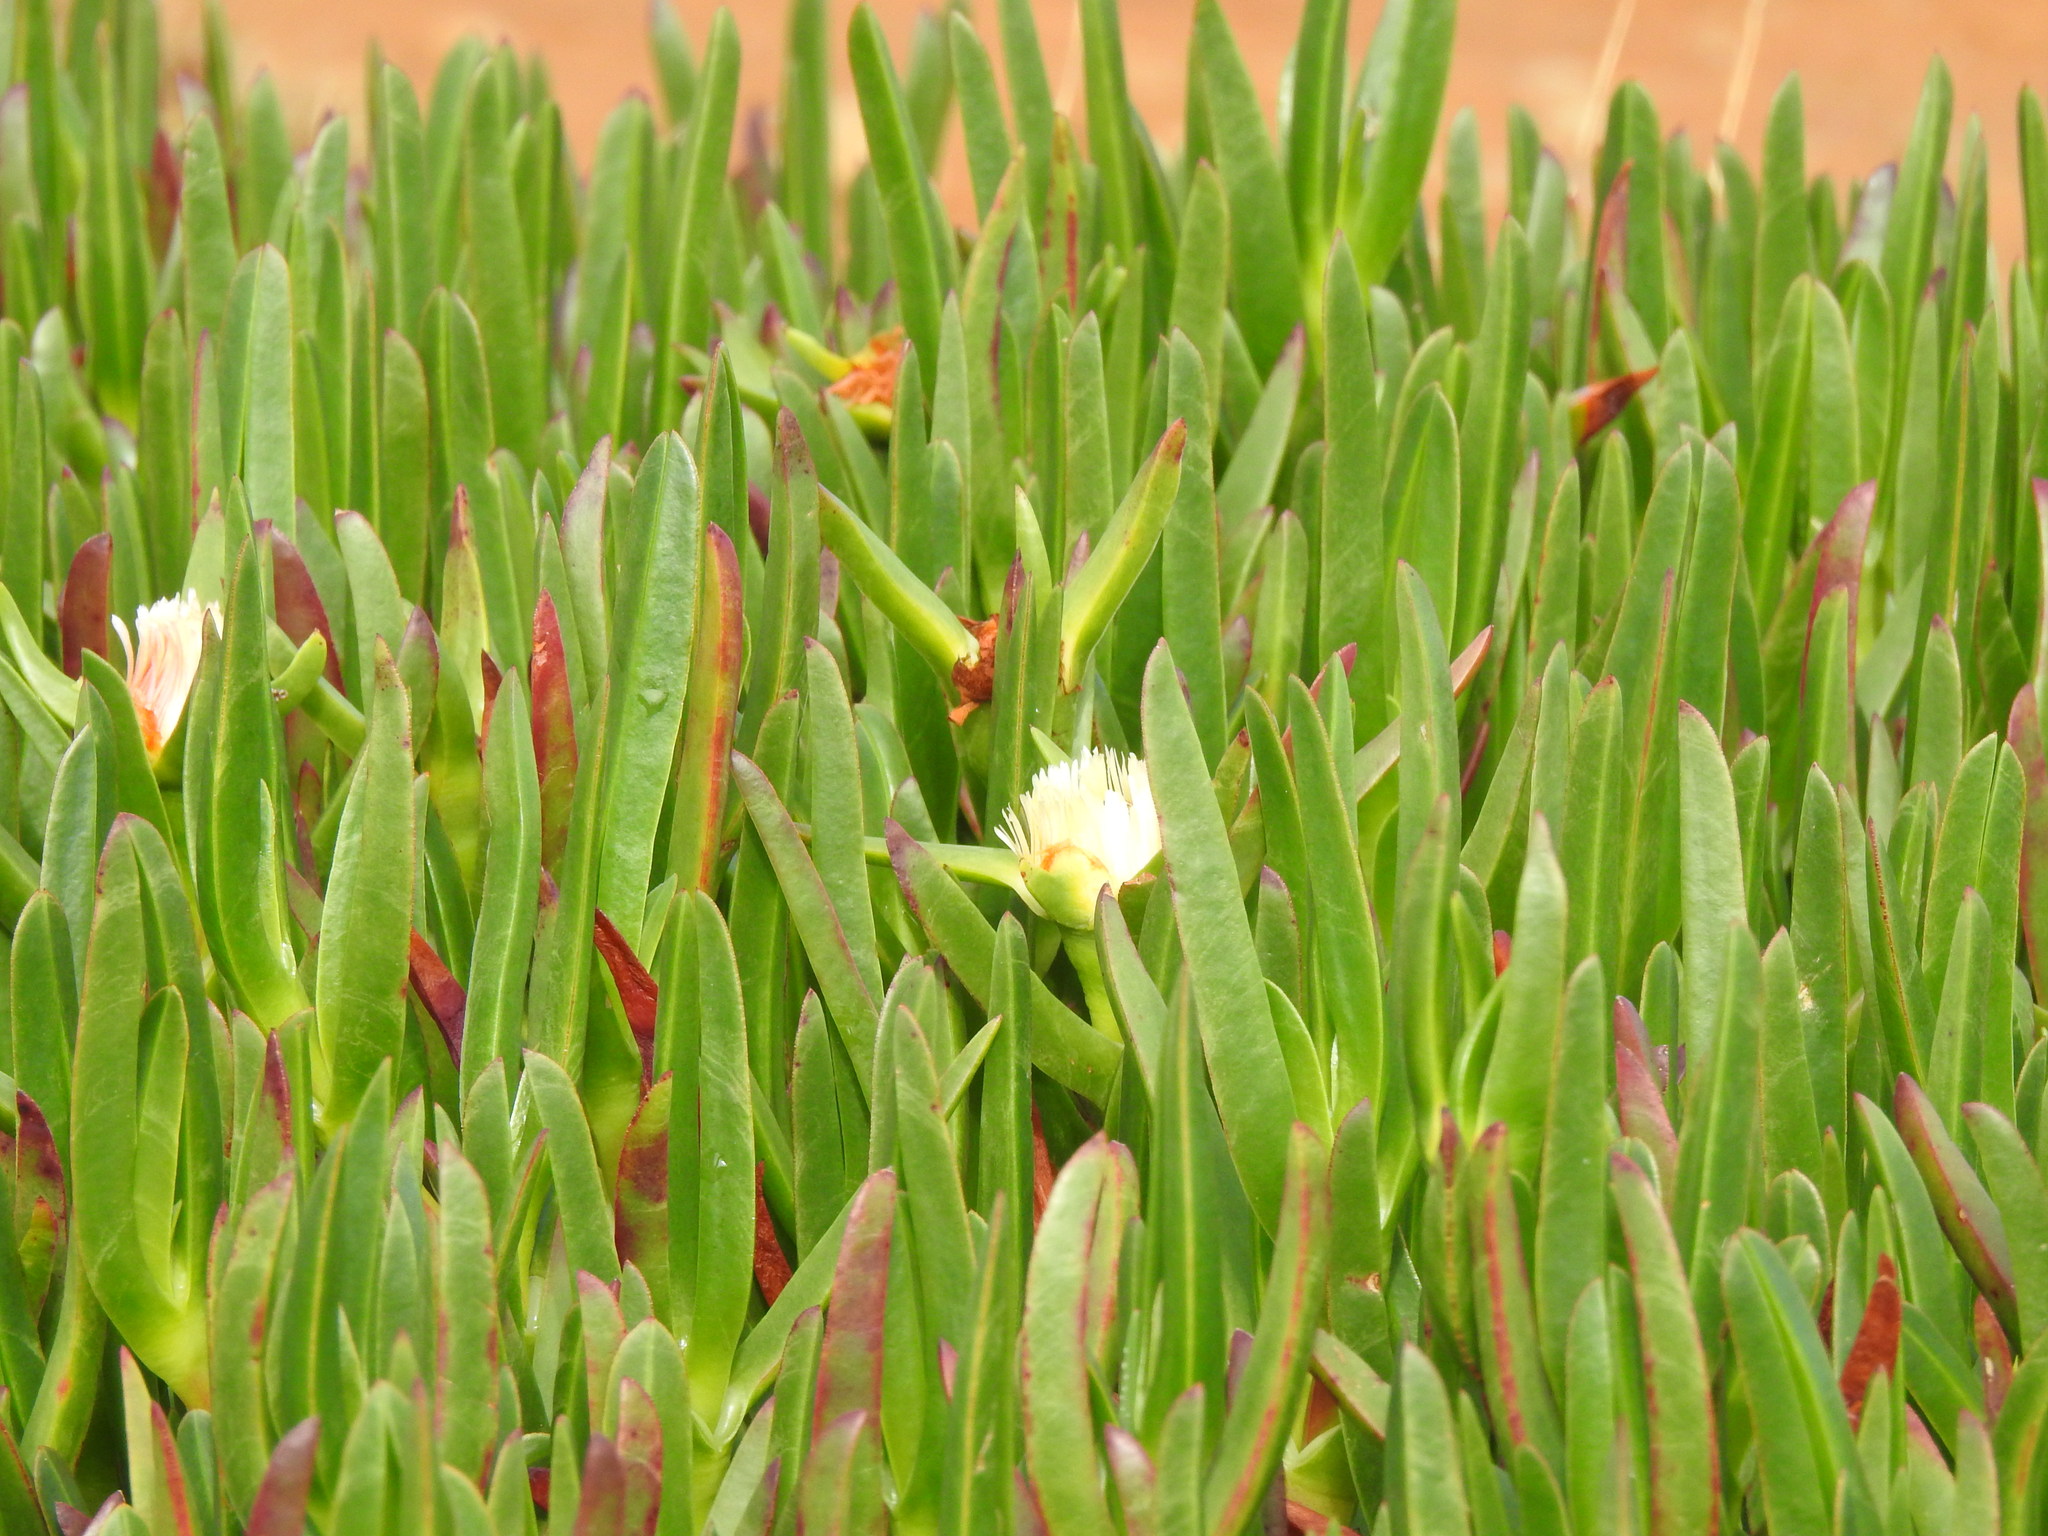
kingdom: Plantae
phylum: Tracheophyta
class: Magnoliopsida
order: Caryophyllales
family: Aizoaceae
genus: Carpobrotus
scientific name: Carpobrotus edulis
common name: Hottentot-fig
